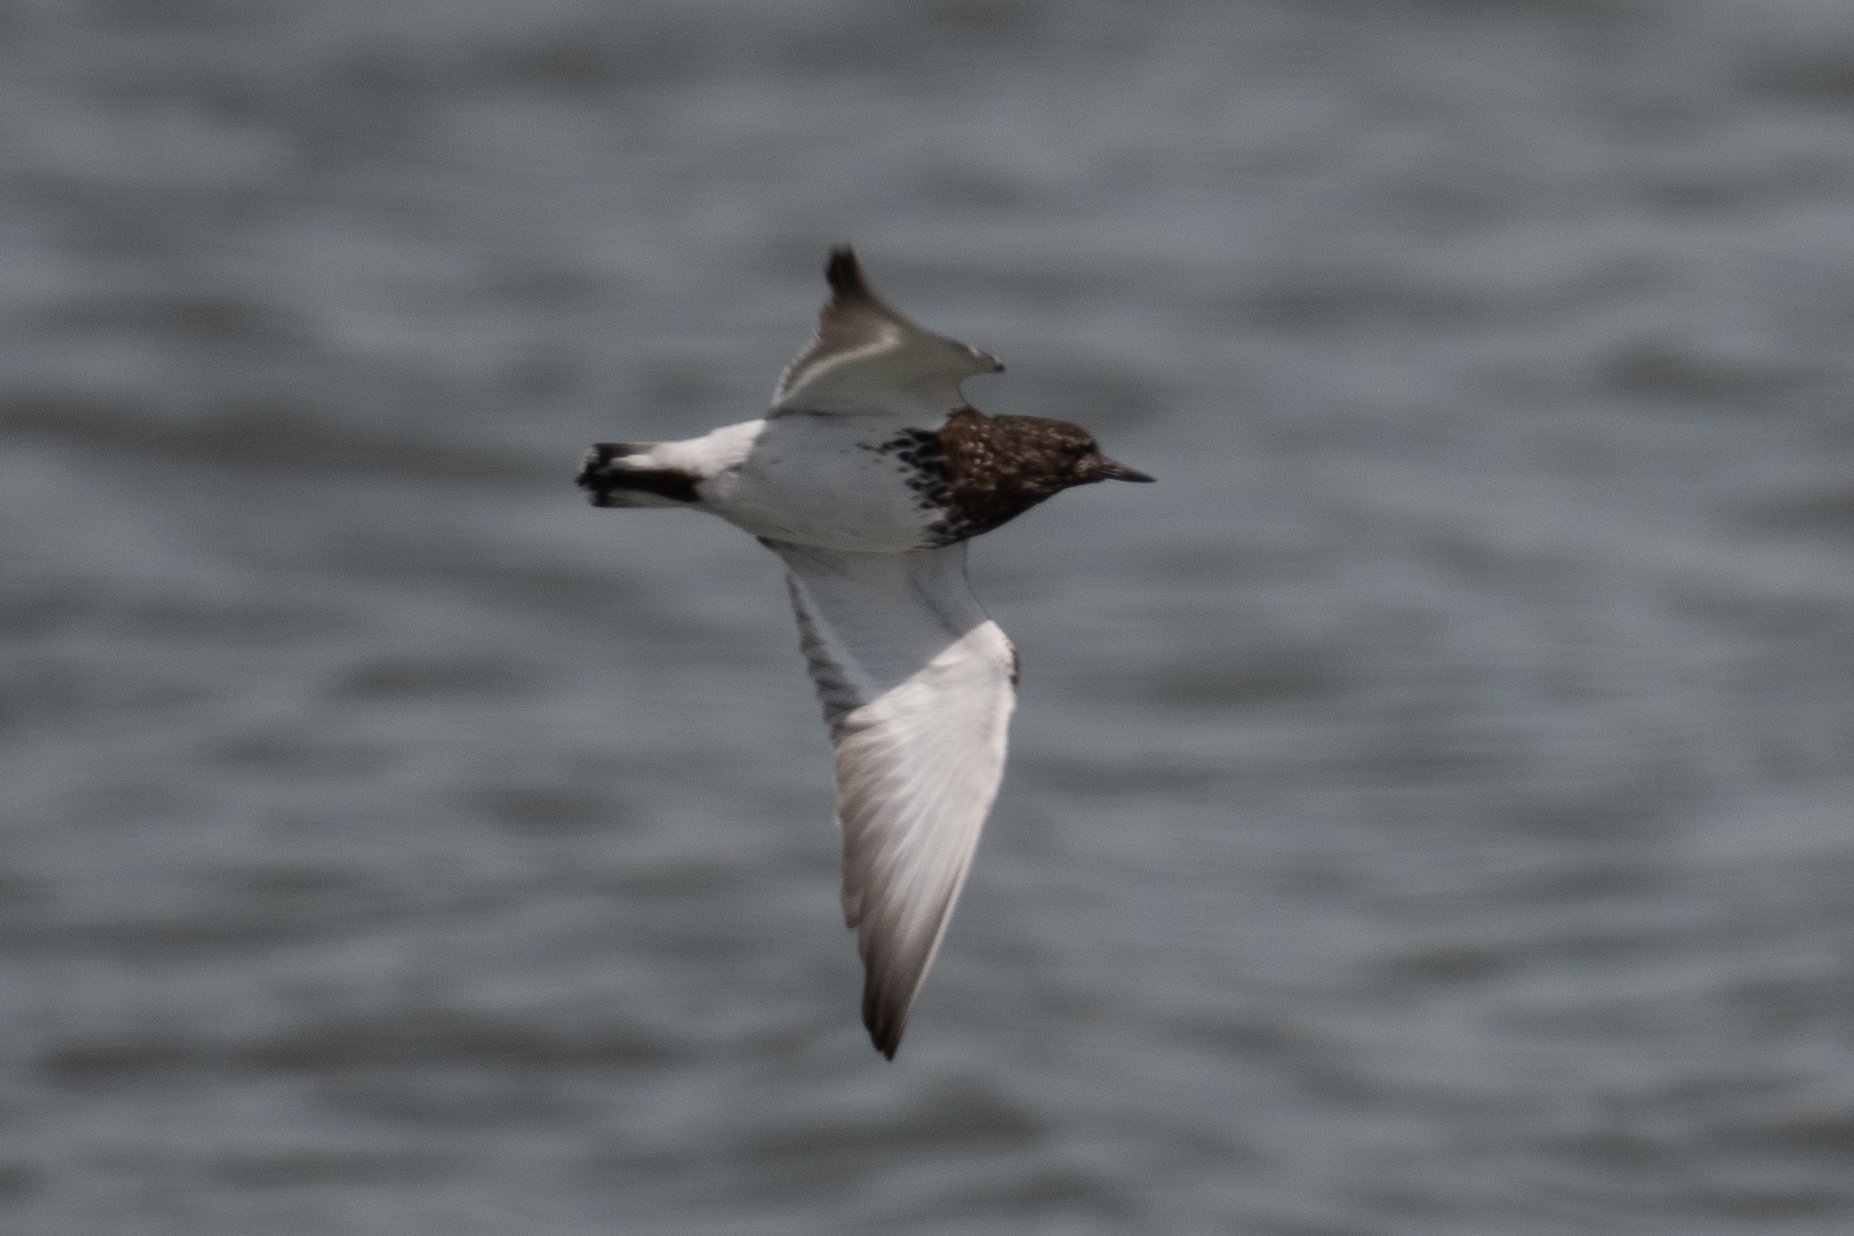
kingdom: Animalia
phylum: Chordata
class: Aves
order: Charadriiformes
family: Scolopacidae
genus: Arenaria
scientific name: Arenaria melanocephala
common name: Black turnstone
